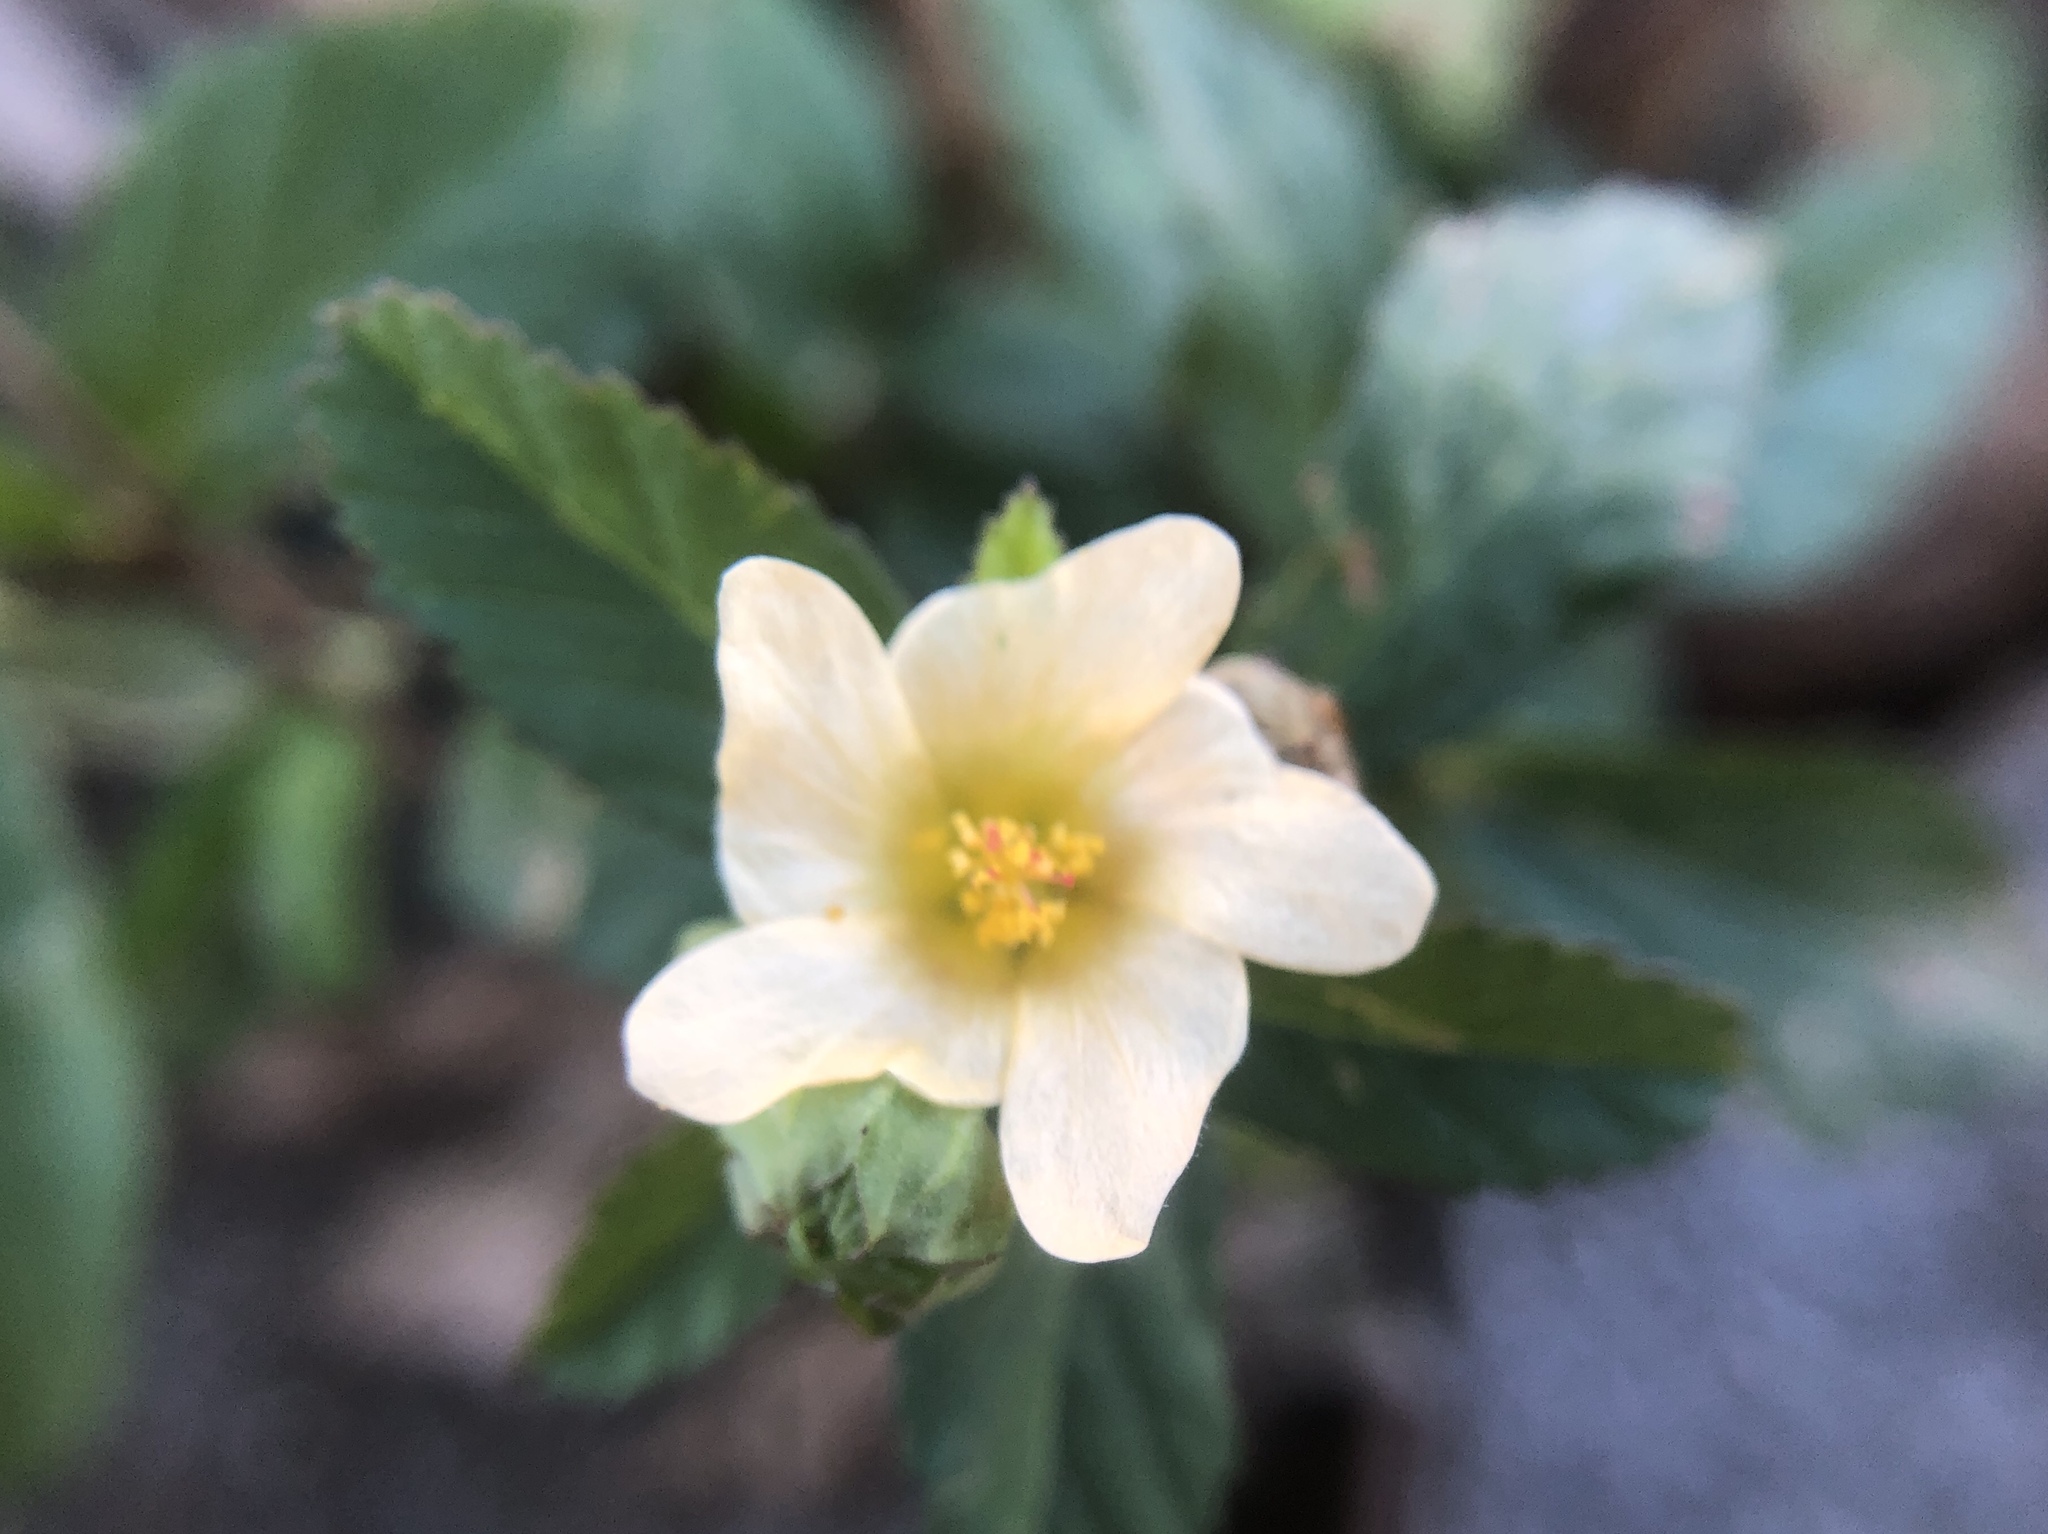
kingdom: Plantae
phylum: Tracheophyta
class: Magnoliopsida
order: Malvales
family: Malvaceae
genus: Sida
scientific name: Sida rhombifolia
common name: Queensland-hemp
